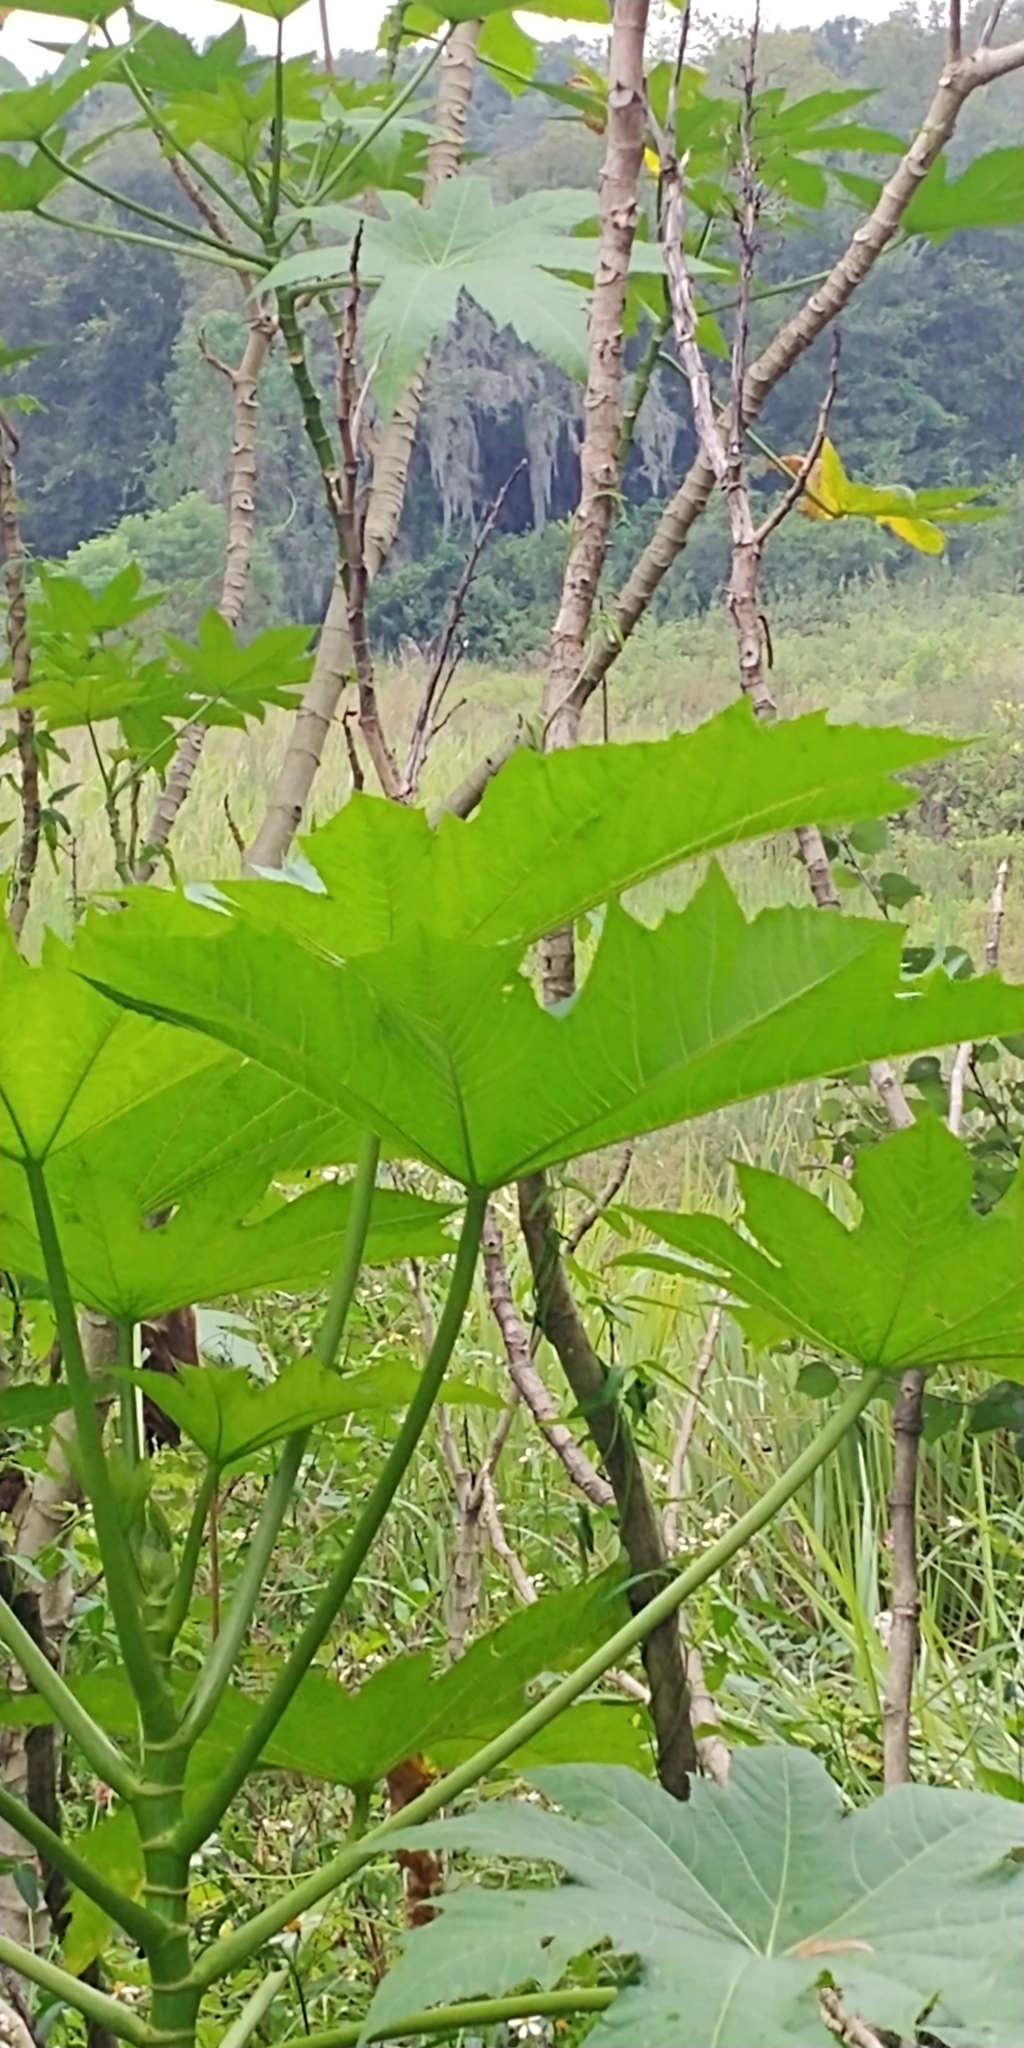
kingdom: Plantae
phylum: Tracheophyta
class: Magnoliopsida
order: Malpighiales
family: Euphorbiaceae
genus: Ricinus
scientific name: Ricinus communis
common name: Castor-oil-plant
